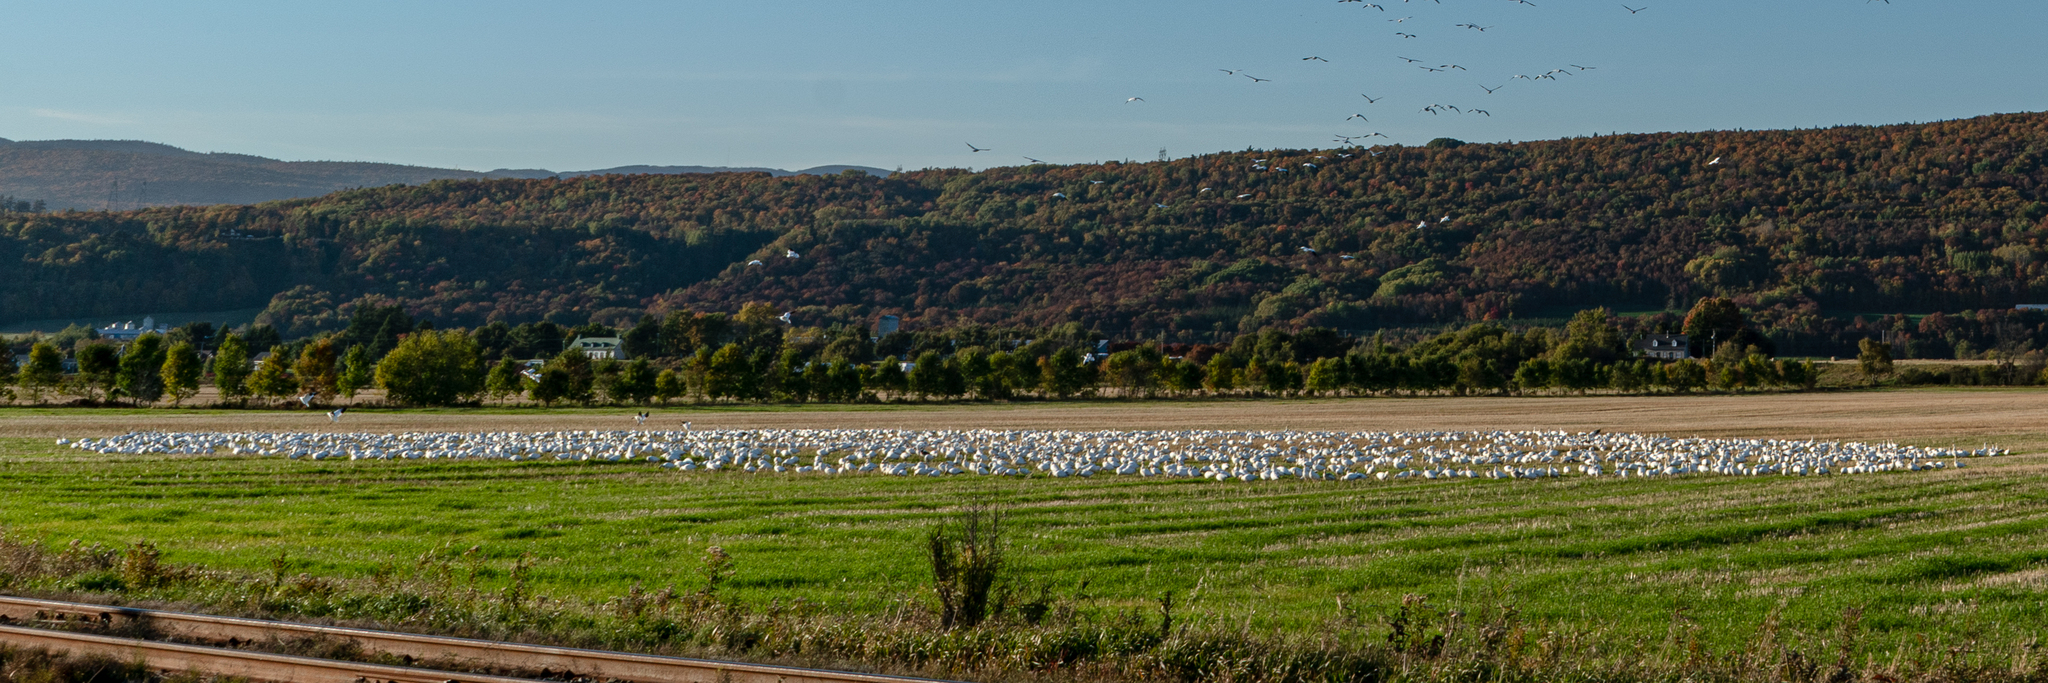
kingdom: Animalia
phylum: Chordata
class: Aves
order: Anseriformes
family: Anatidae
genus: Anser
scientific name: Anser caerulescens
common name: Snow goose
